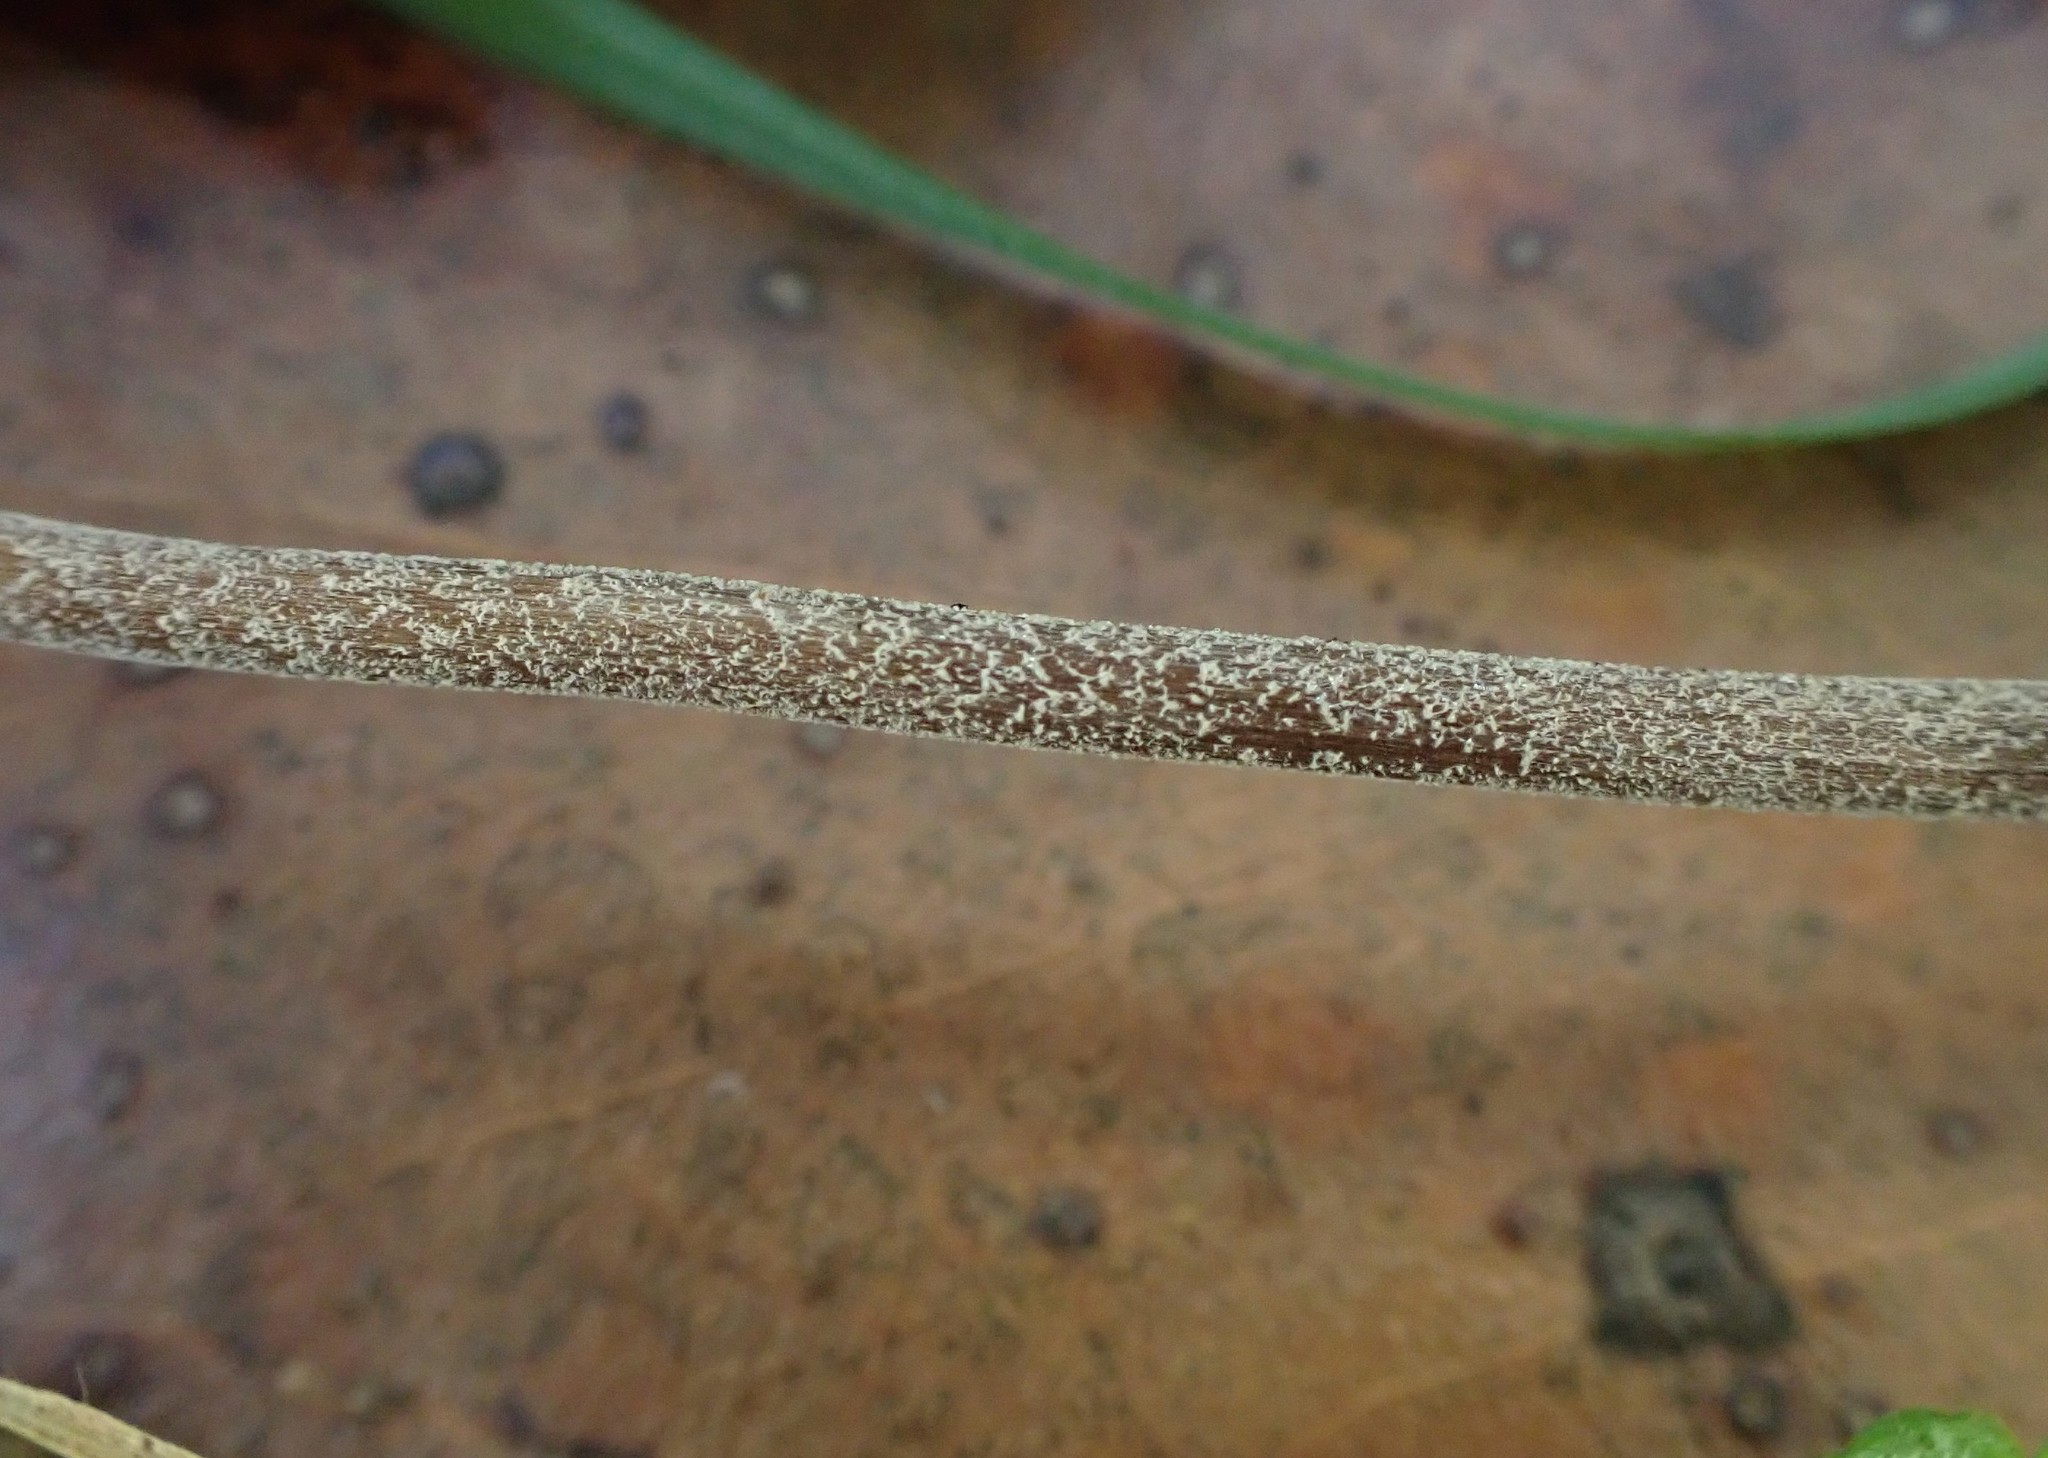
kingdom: Fungi
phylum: Basidiomycota
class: Agaricomycetes
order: Agaricales
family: Bolbitiaceae
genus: Panaeolus
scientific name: Panaeolus acuminatus
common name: Dewdrop mottlegill
